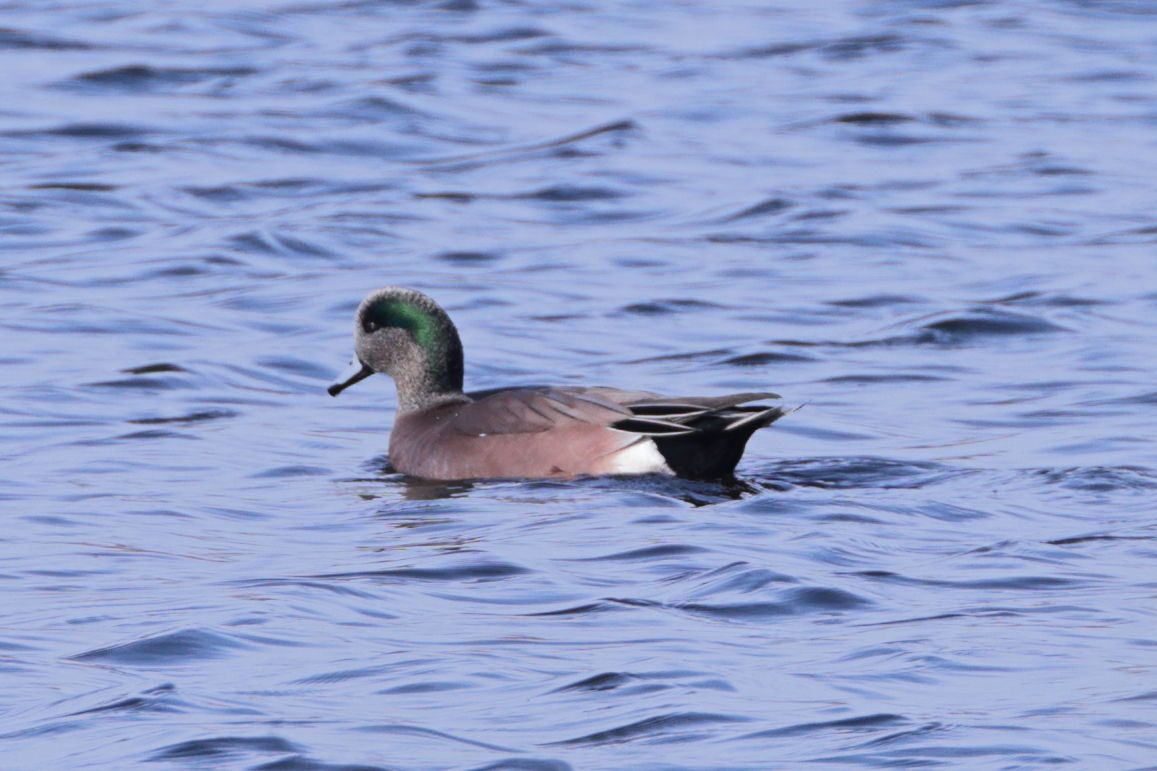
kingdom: Animalia
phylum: Chordata
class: Aves
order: Anseriformes
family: Anatidae
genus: Mareca
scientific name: Mareca americana
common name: American wigeon
